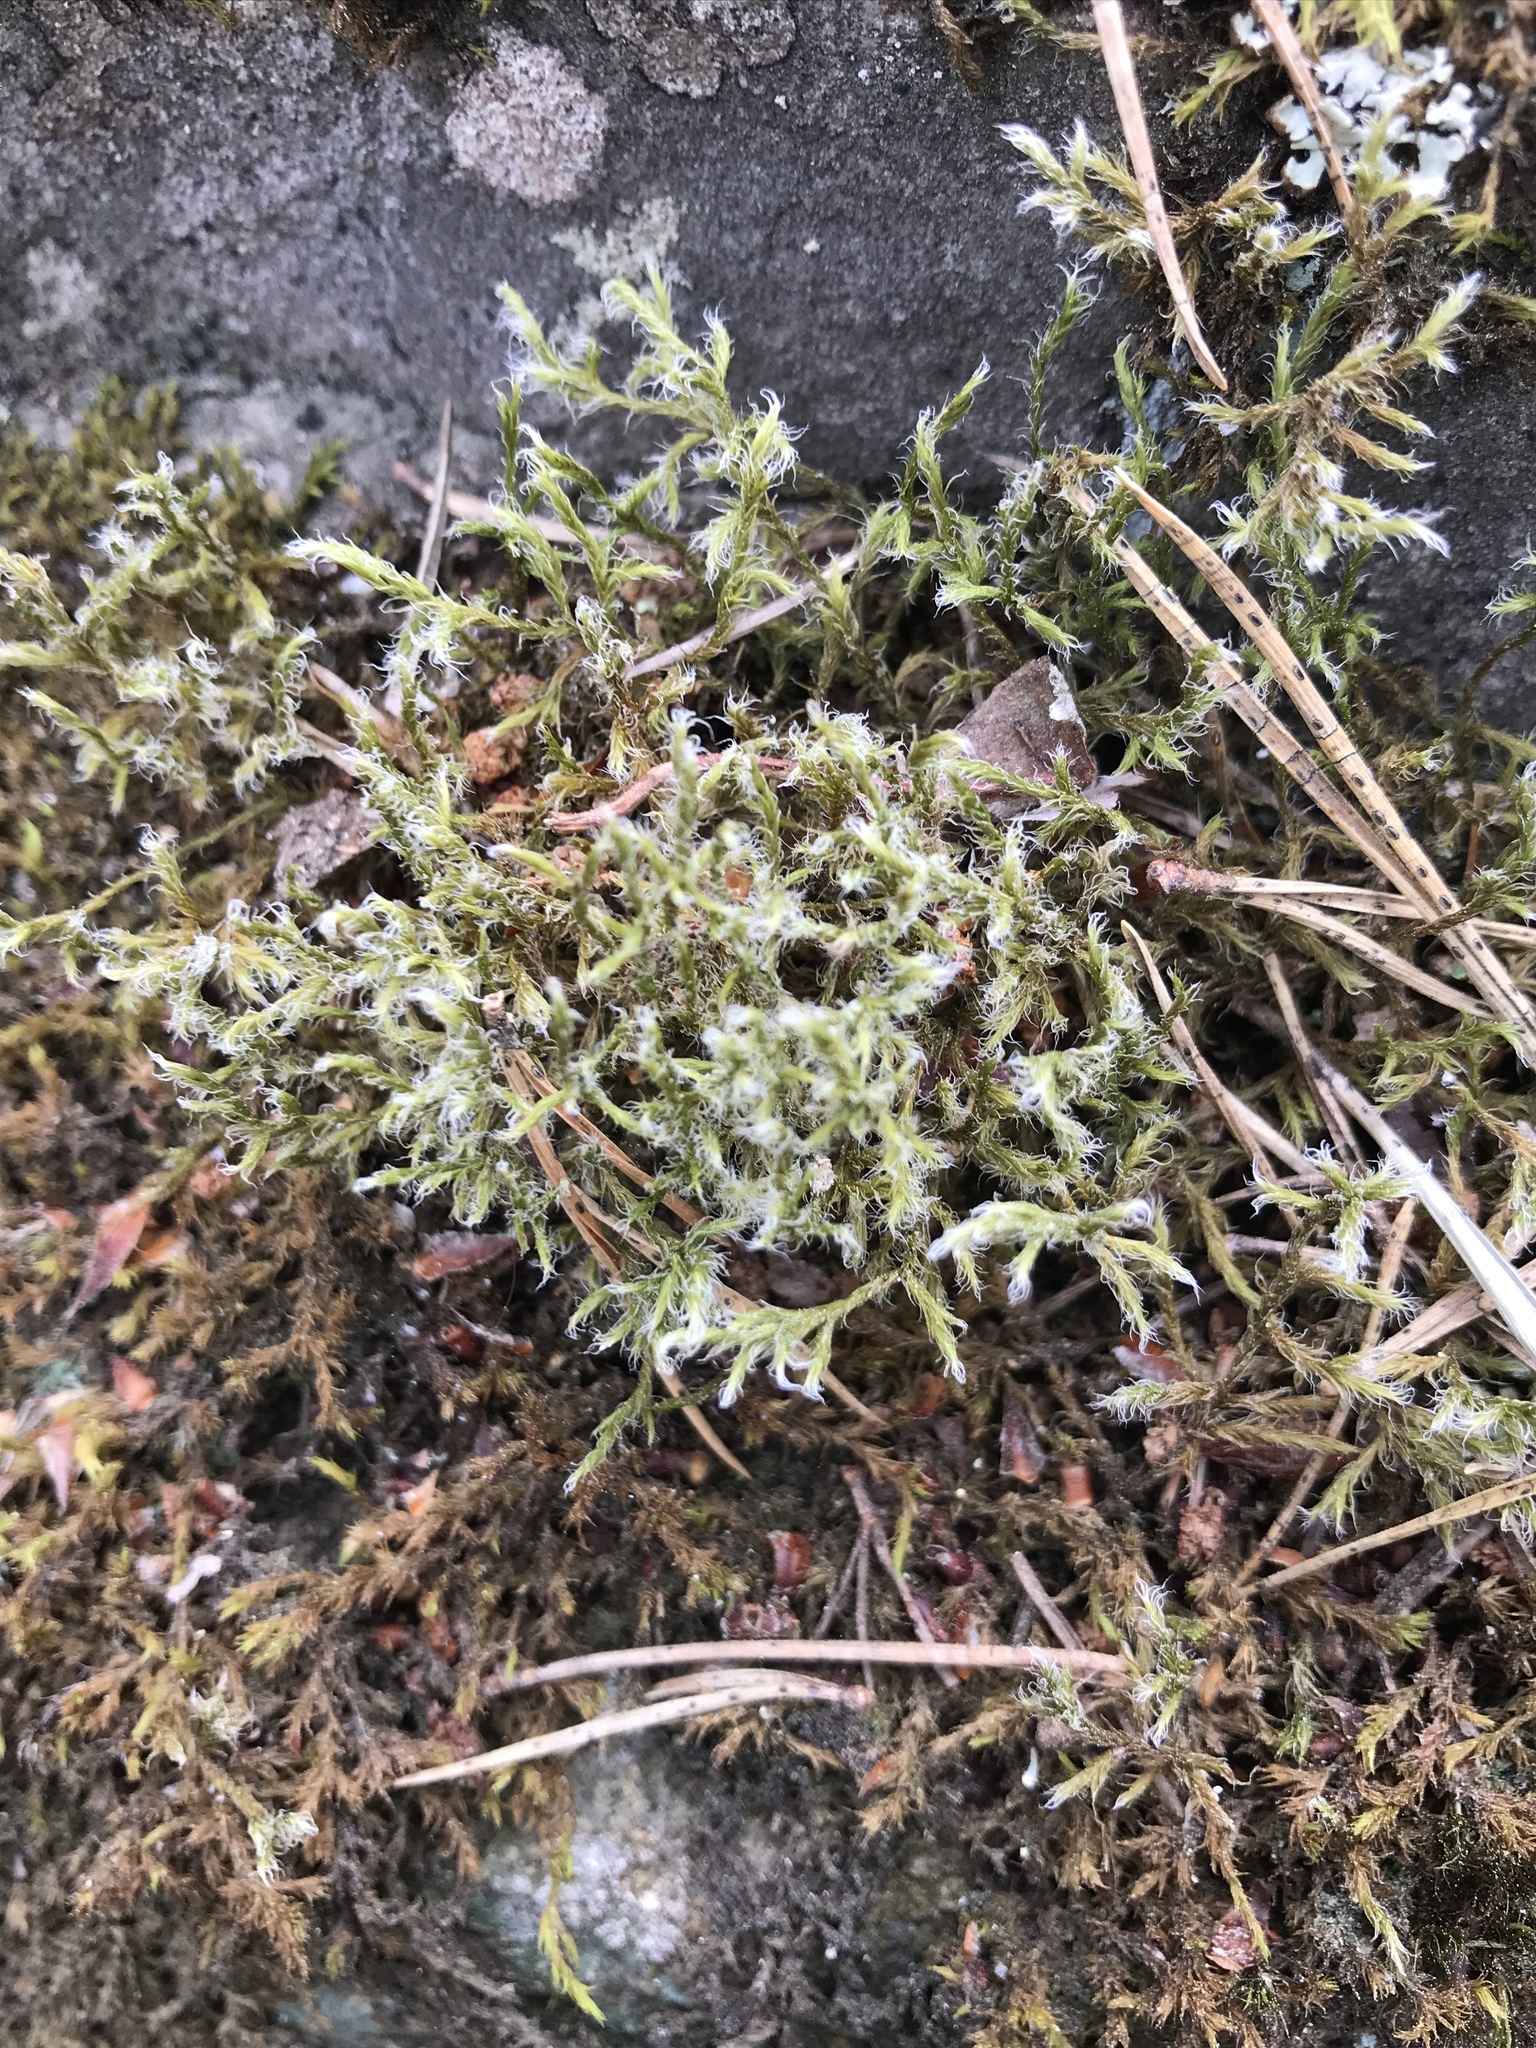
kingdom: Plantae
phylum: Bryophyta
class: Bryopsida
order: Grimmiales
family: Grimmiaceae
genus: Racomitrium
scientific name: Racomitrium lanuginosum
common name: Hoary rock moss
